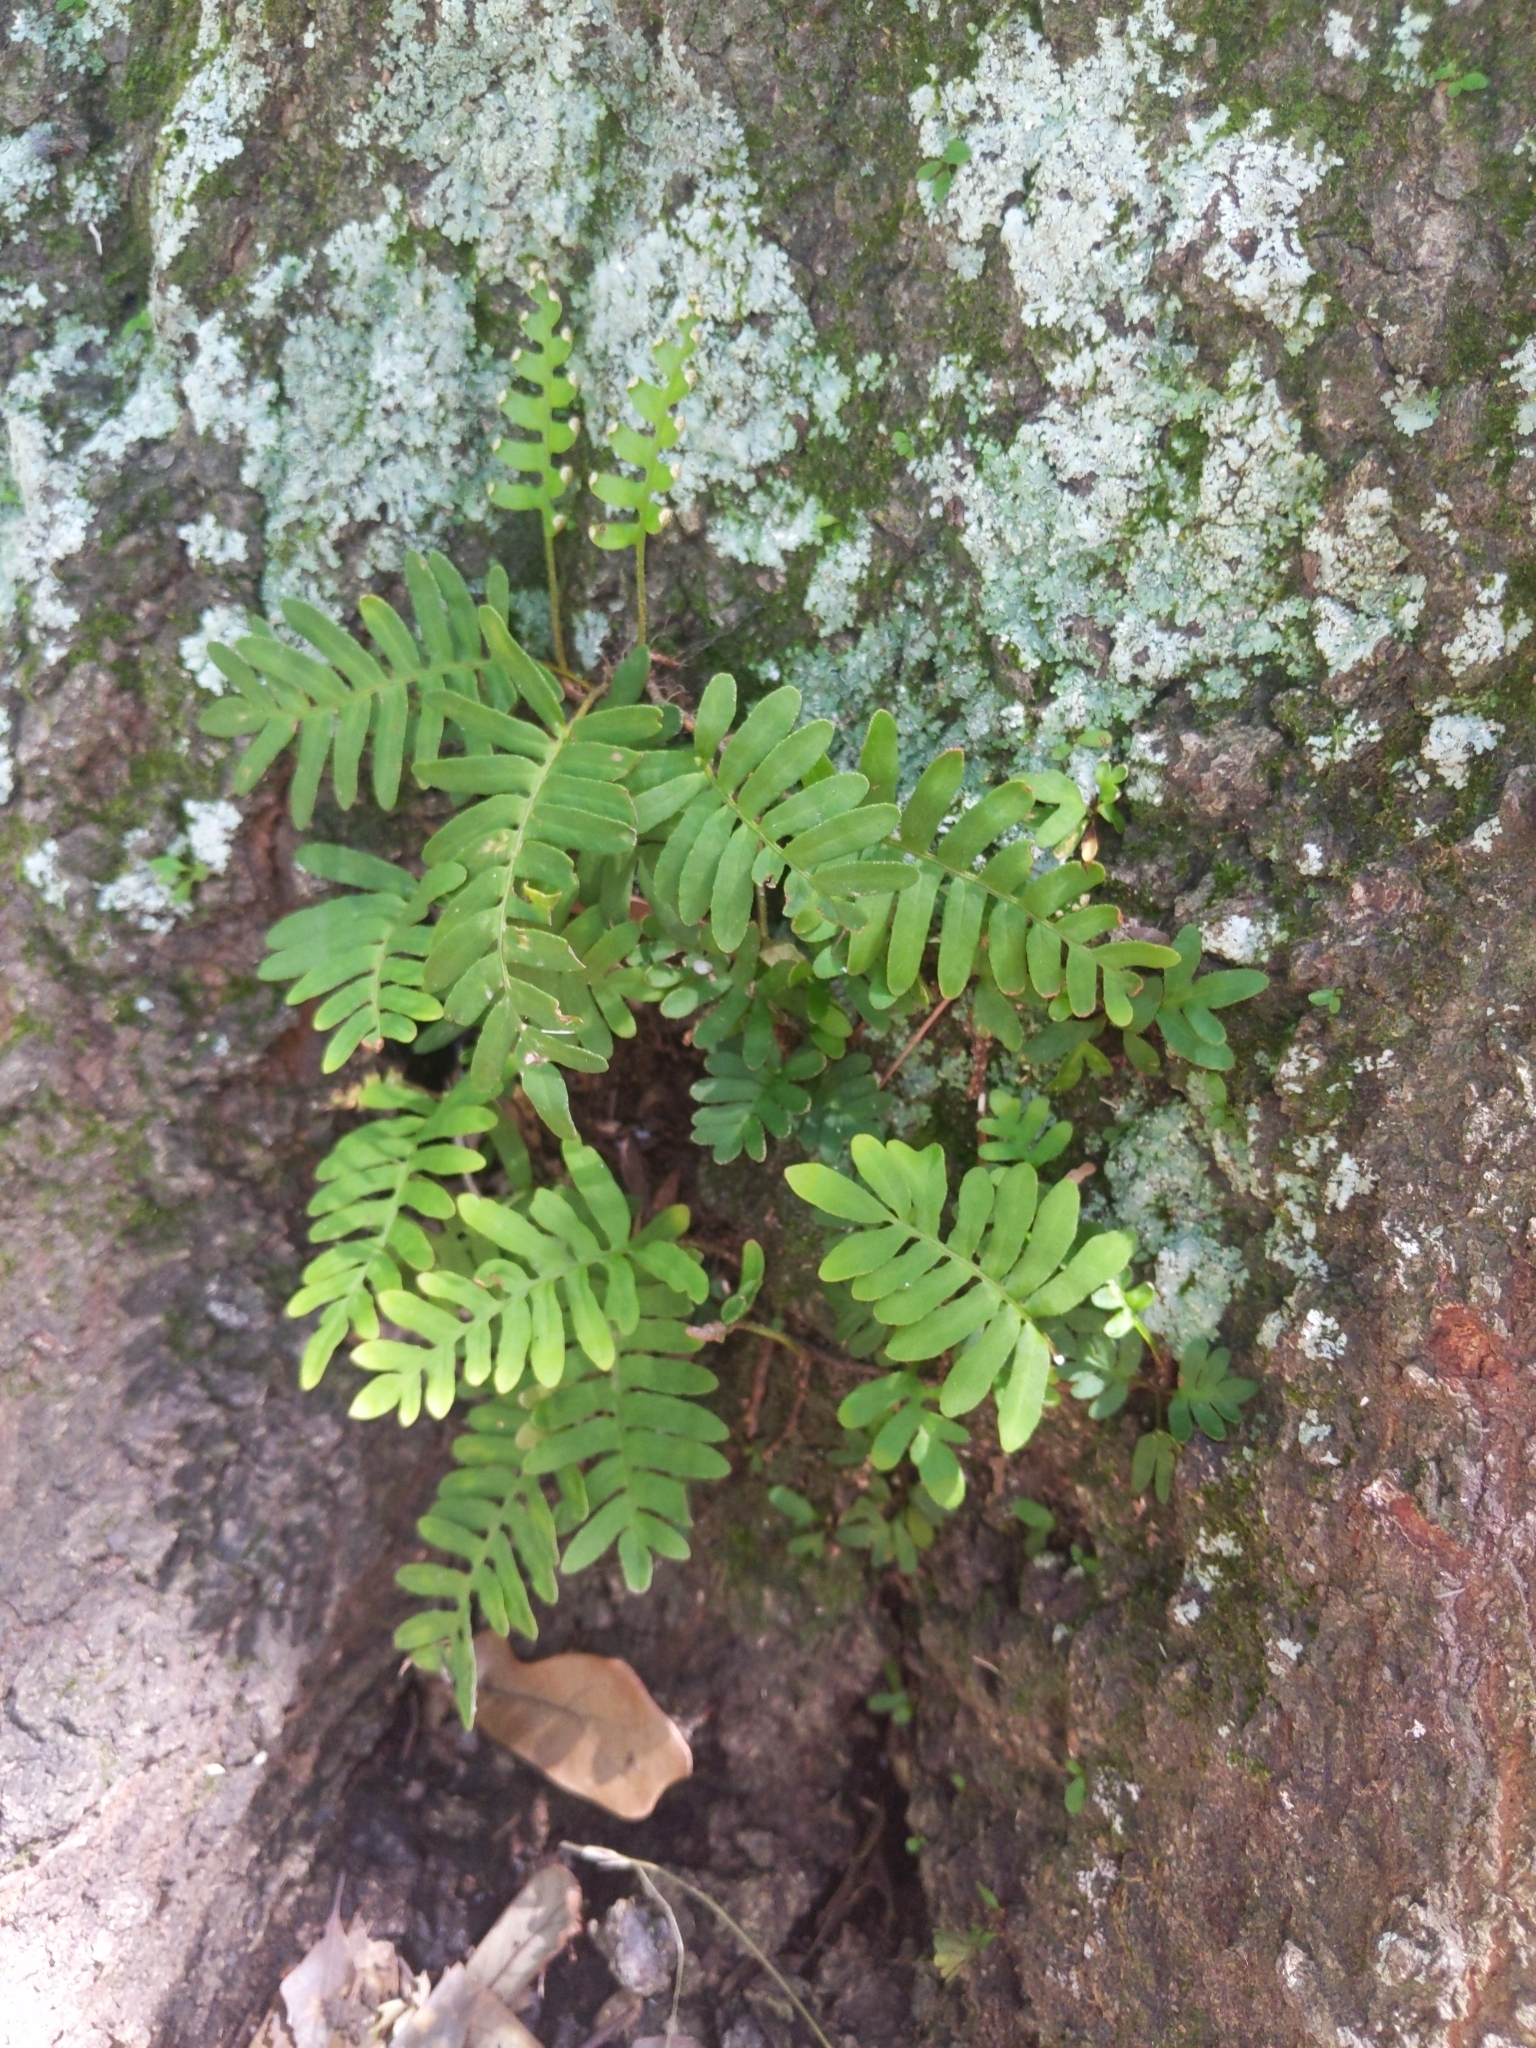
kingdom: Plantae
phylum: Tracheophyta
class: Polypodiopsida
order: Polypodiales
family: Polypodiaceae
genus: Pleopeltis
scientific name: Pleopeltis michauxiana
